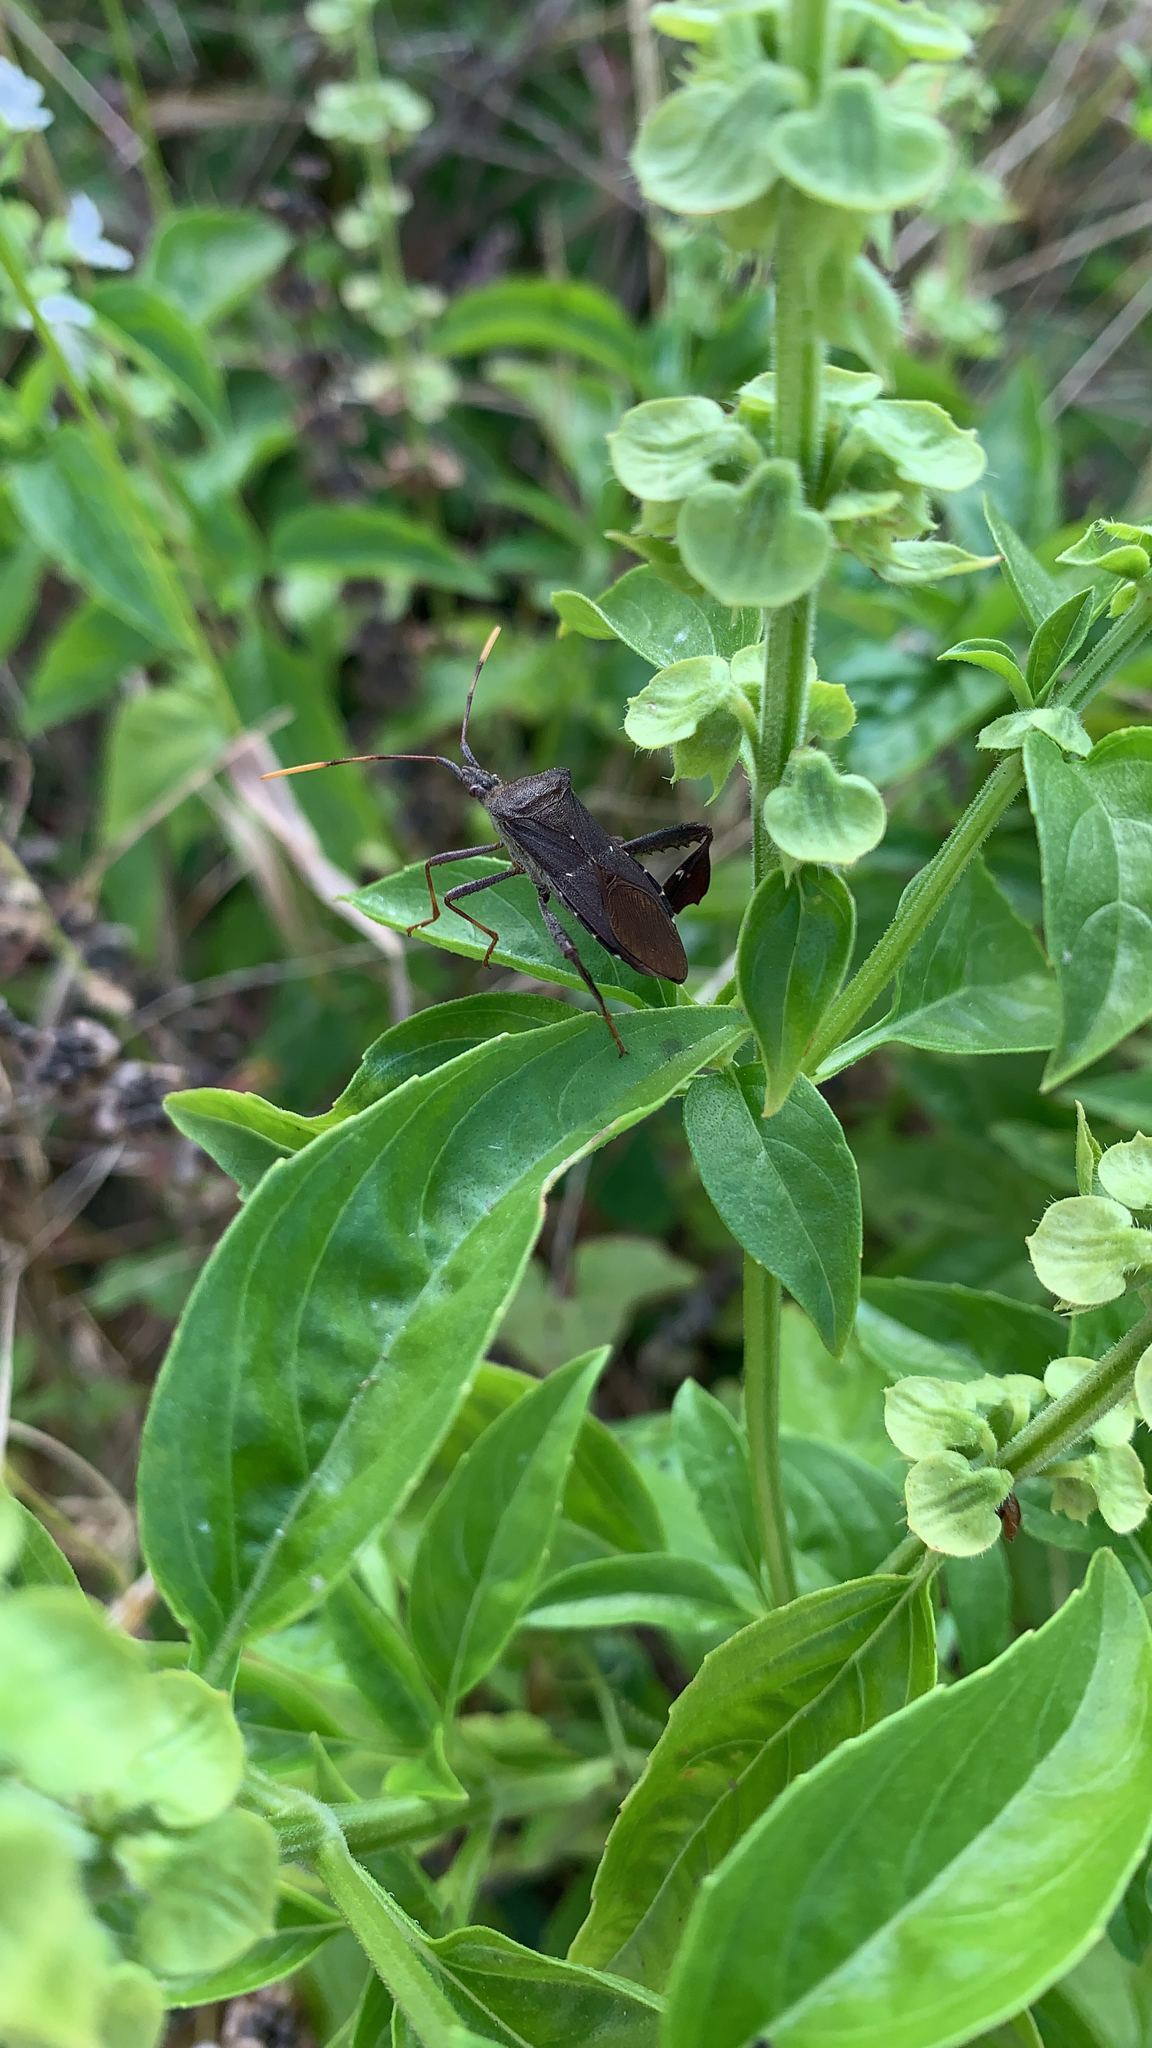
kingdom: Animalia
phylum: Arthropoda
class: Insecta
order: Hemiptera
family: Coreidae
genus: Leptoglossus
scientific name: Leptoglossus oppositus
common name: Northern leaf-footed bug
